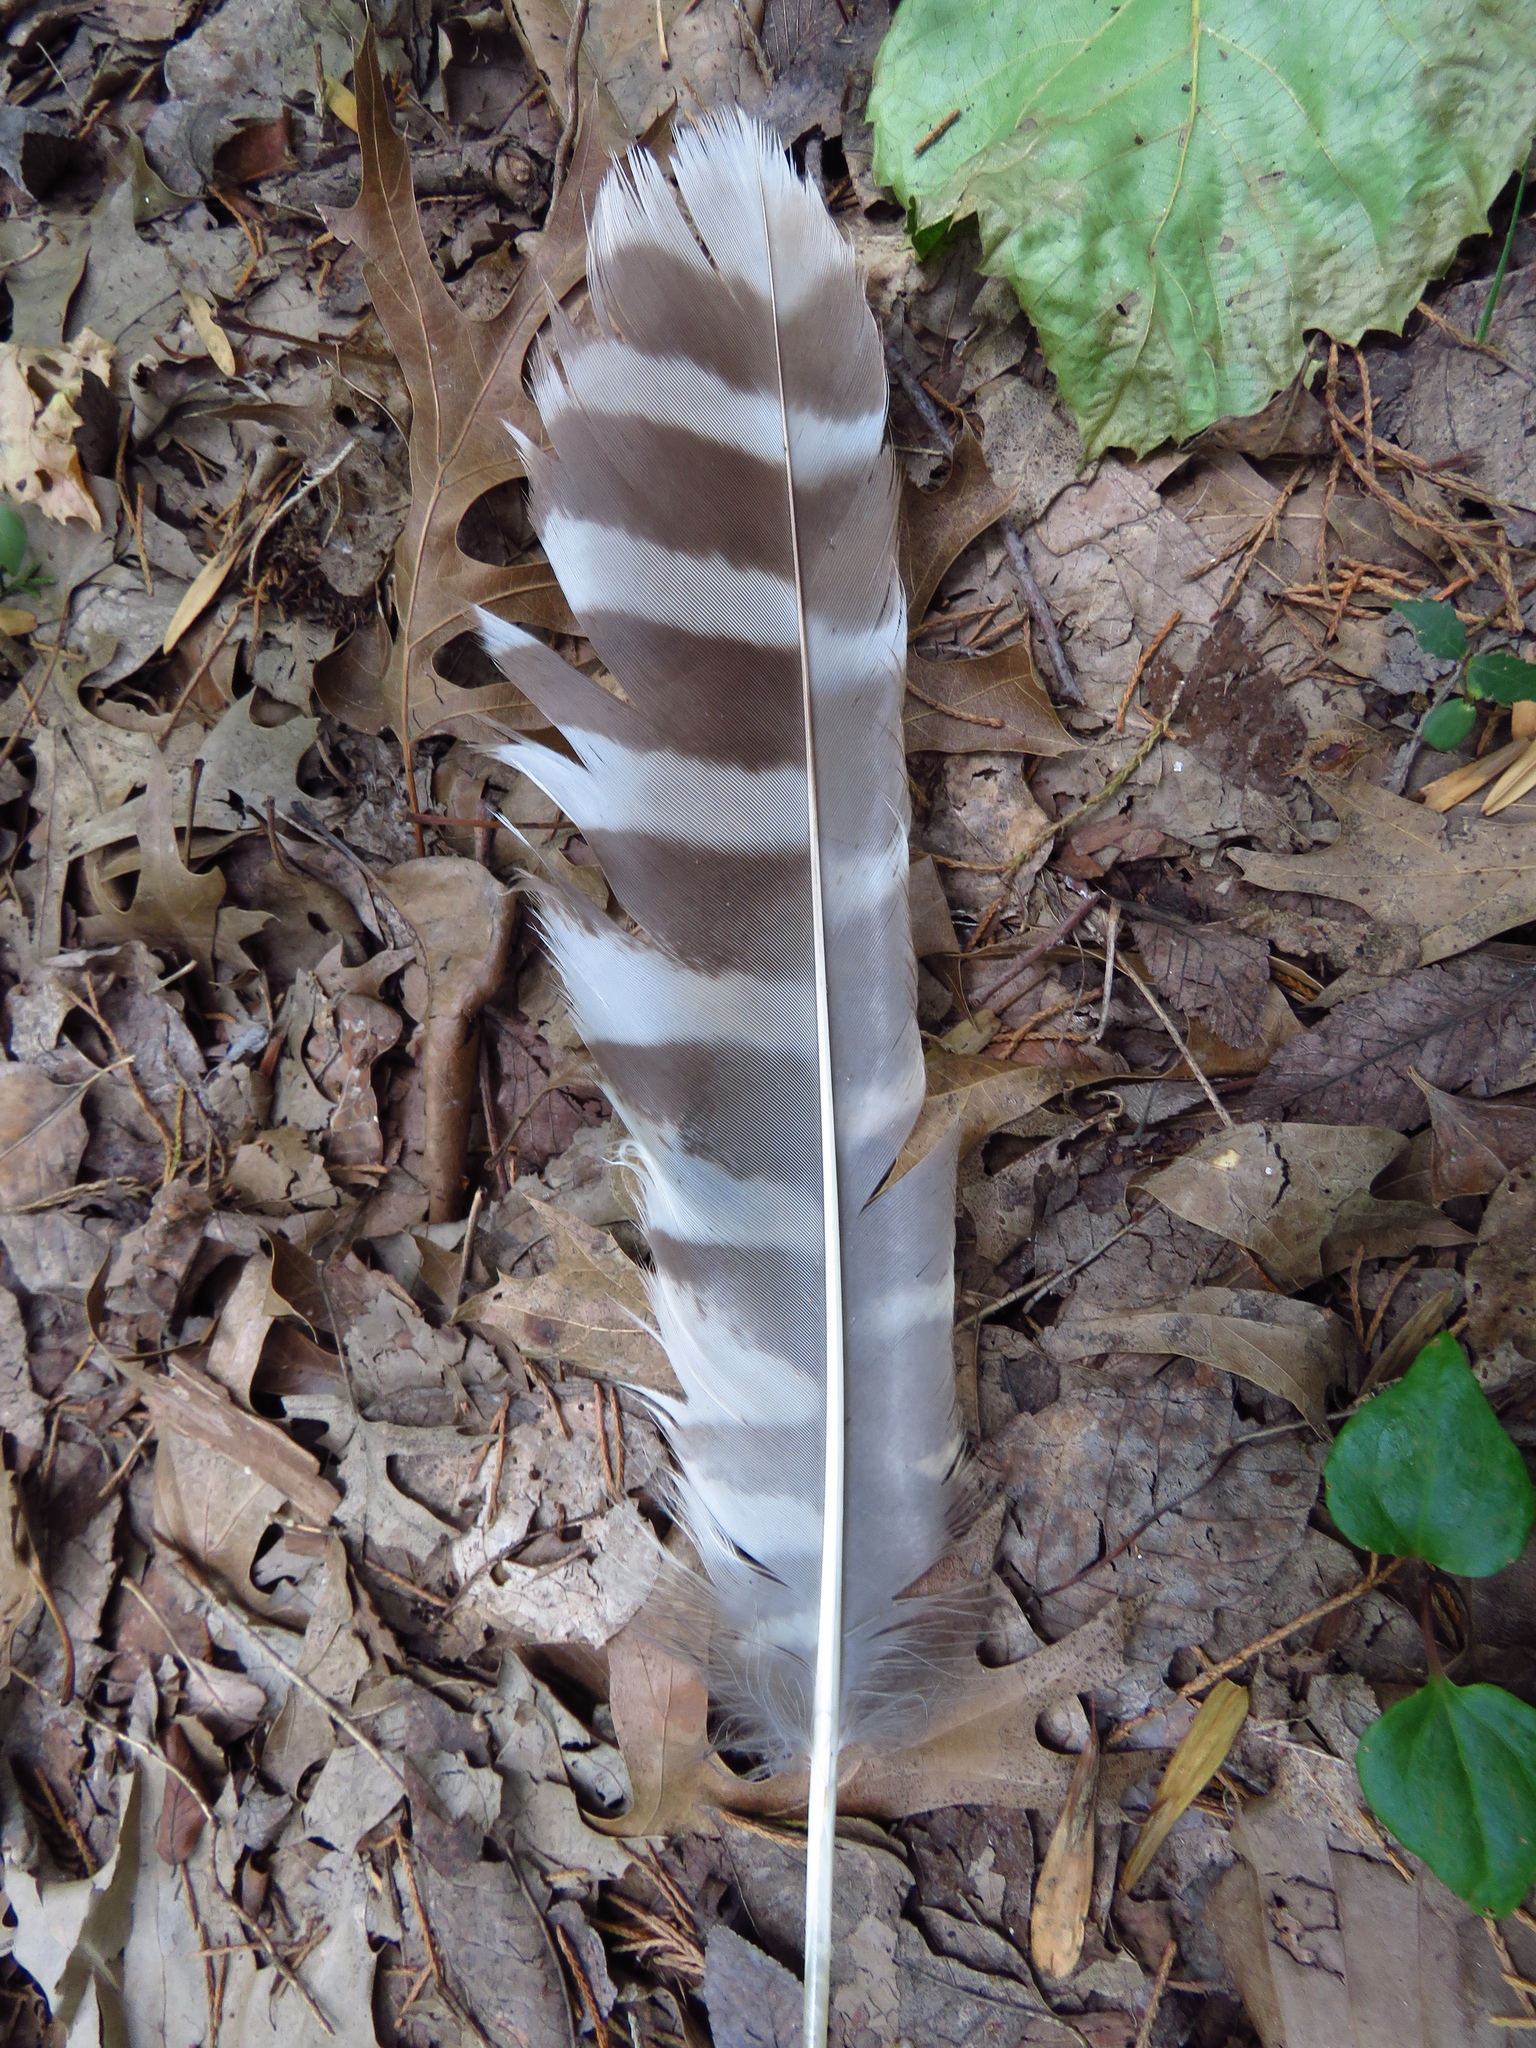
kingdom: Animalia
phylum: Chordata
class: Aves
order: Strigiformes
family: Strigidae
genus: Strix
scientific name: Strix varia
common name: Barred owl
